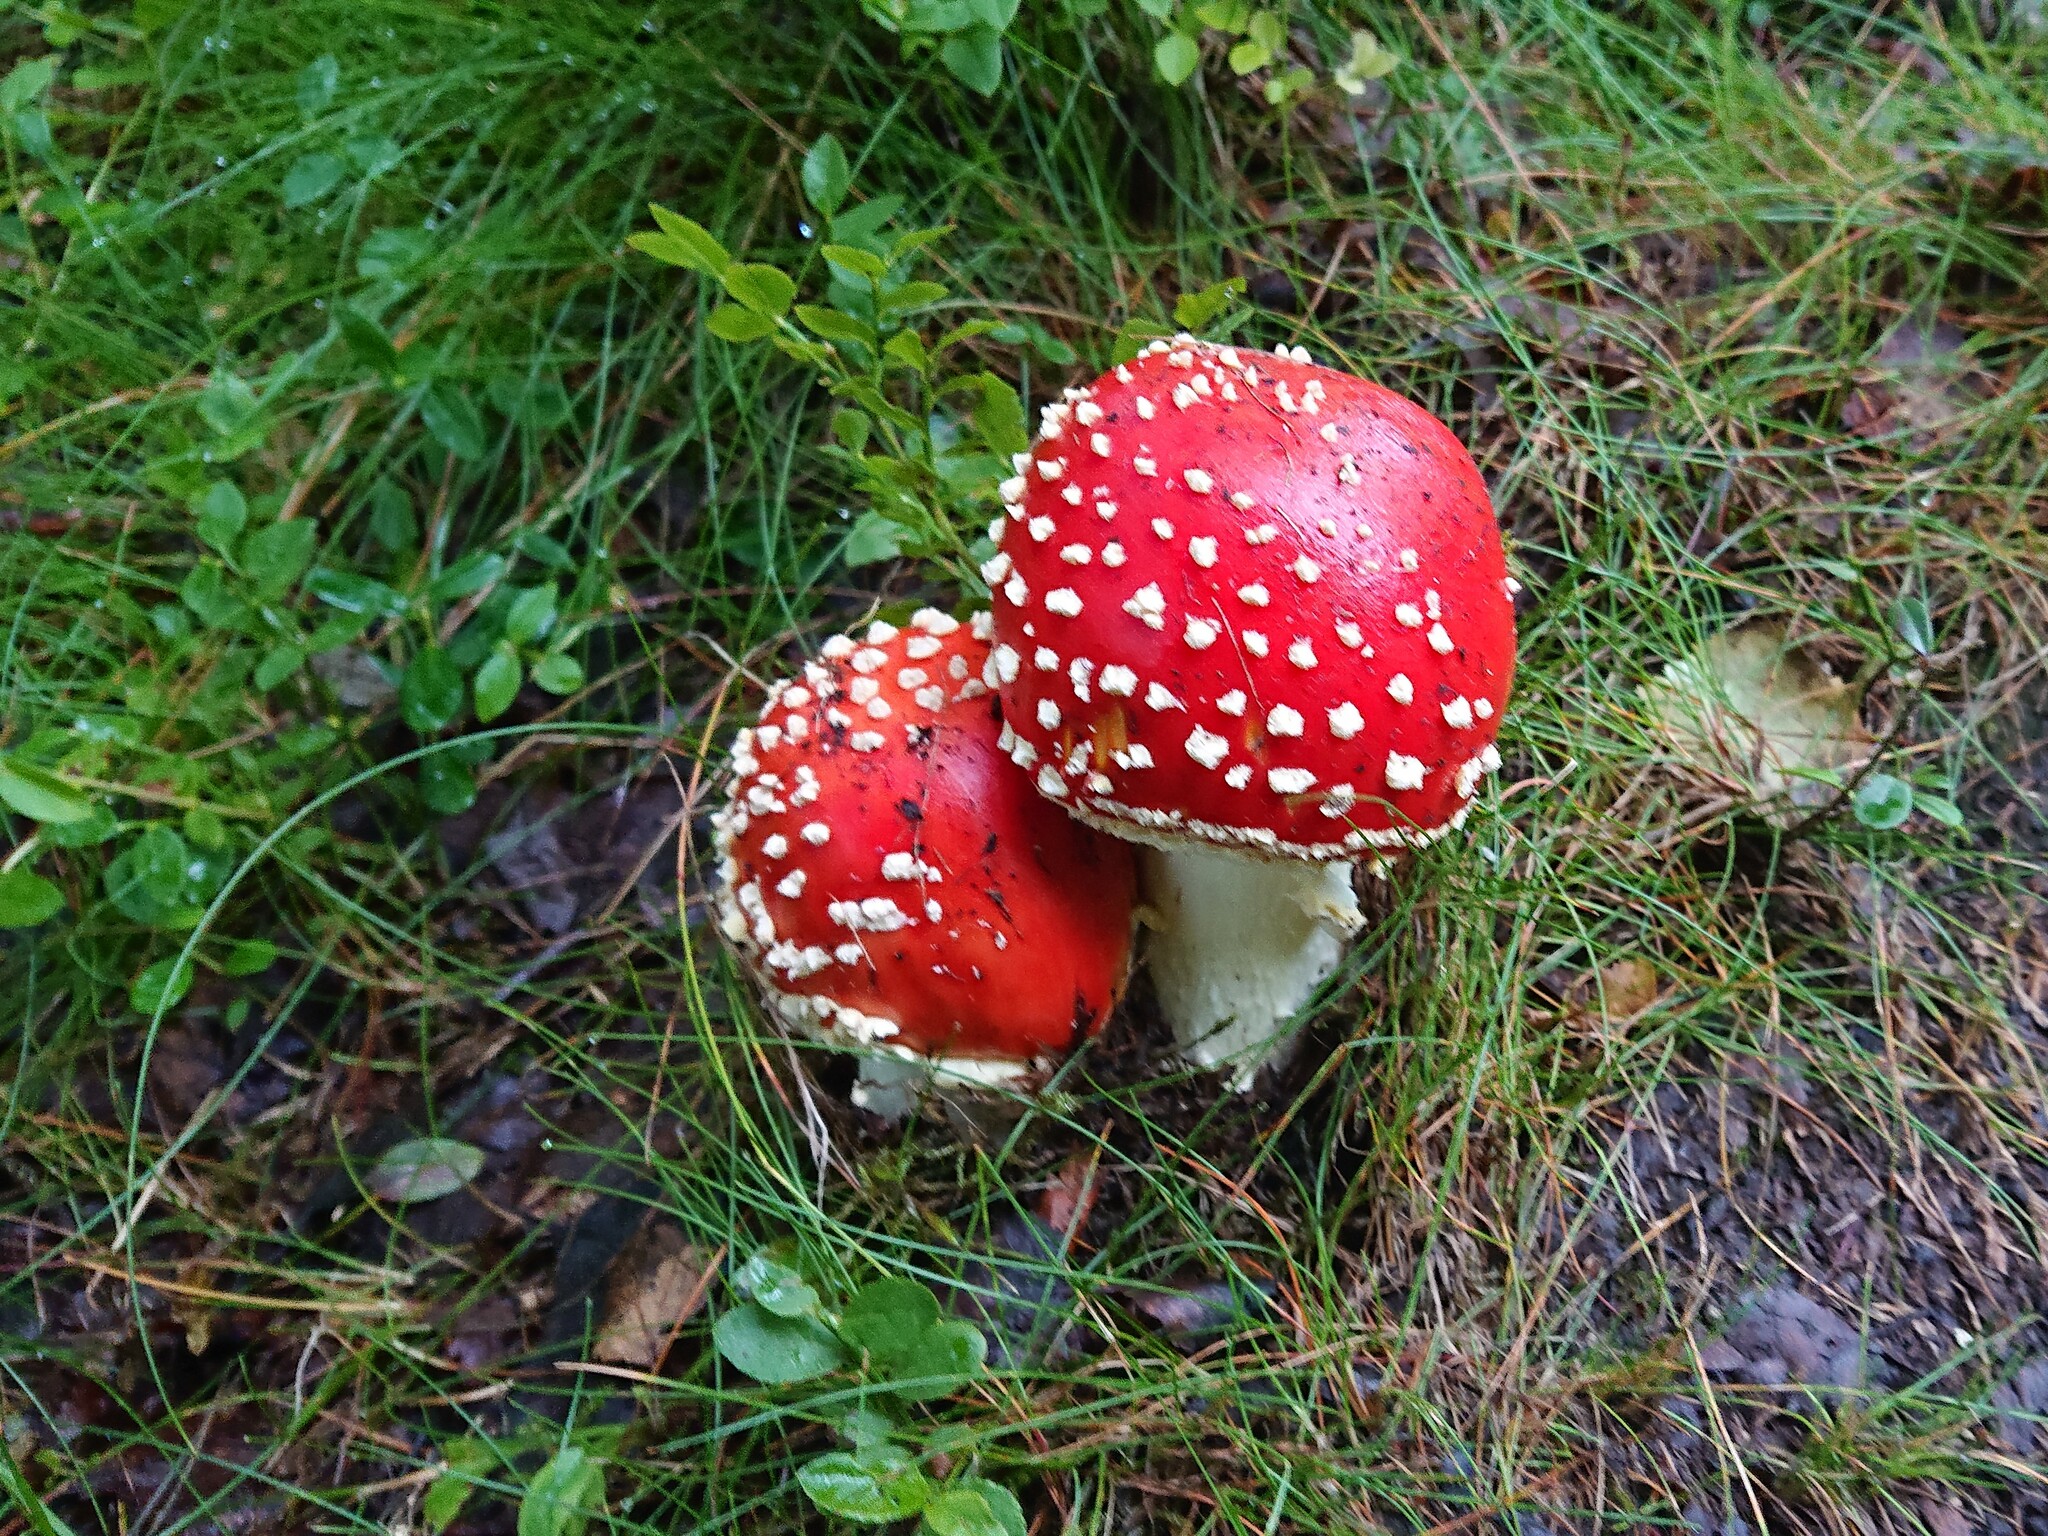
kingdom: Fungi
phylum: Basidiomycota
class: Agaricomycetes
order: Agaricales
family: Amanitaceae
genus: Amanita
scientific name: Amanita muscaria
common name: Fly agaric
